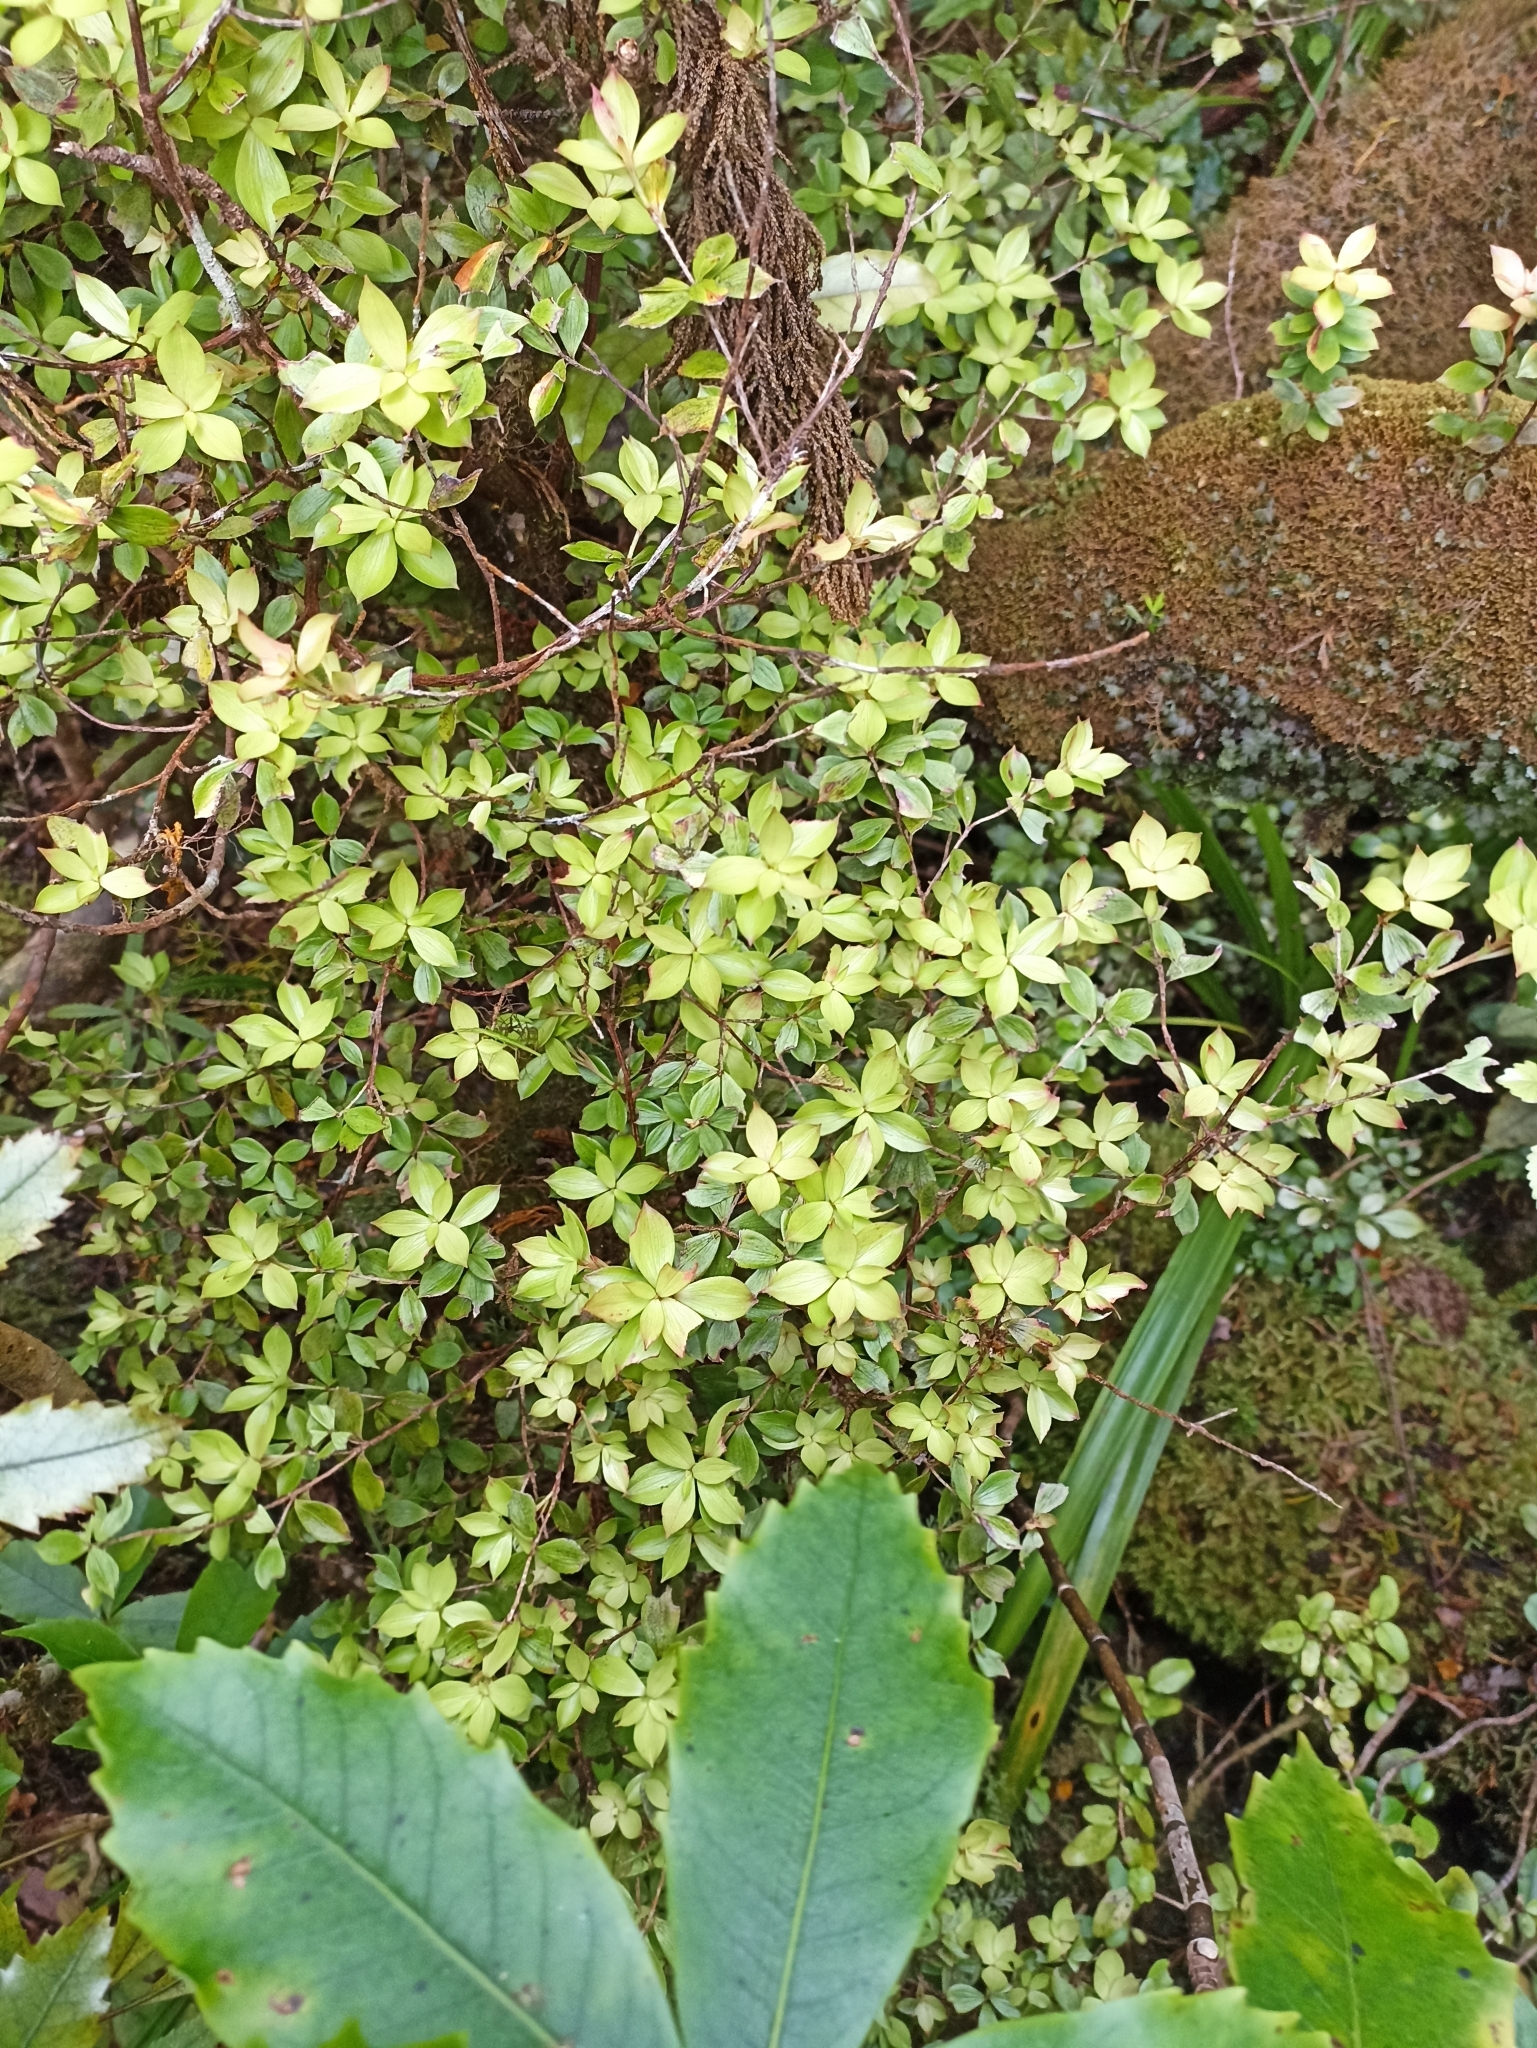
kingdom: Plantae
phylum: Tracheophyta
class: Magnoliopsida
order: Ericales
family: Ericaceae
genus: Archeria
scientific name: Archeria racemosa
